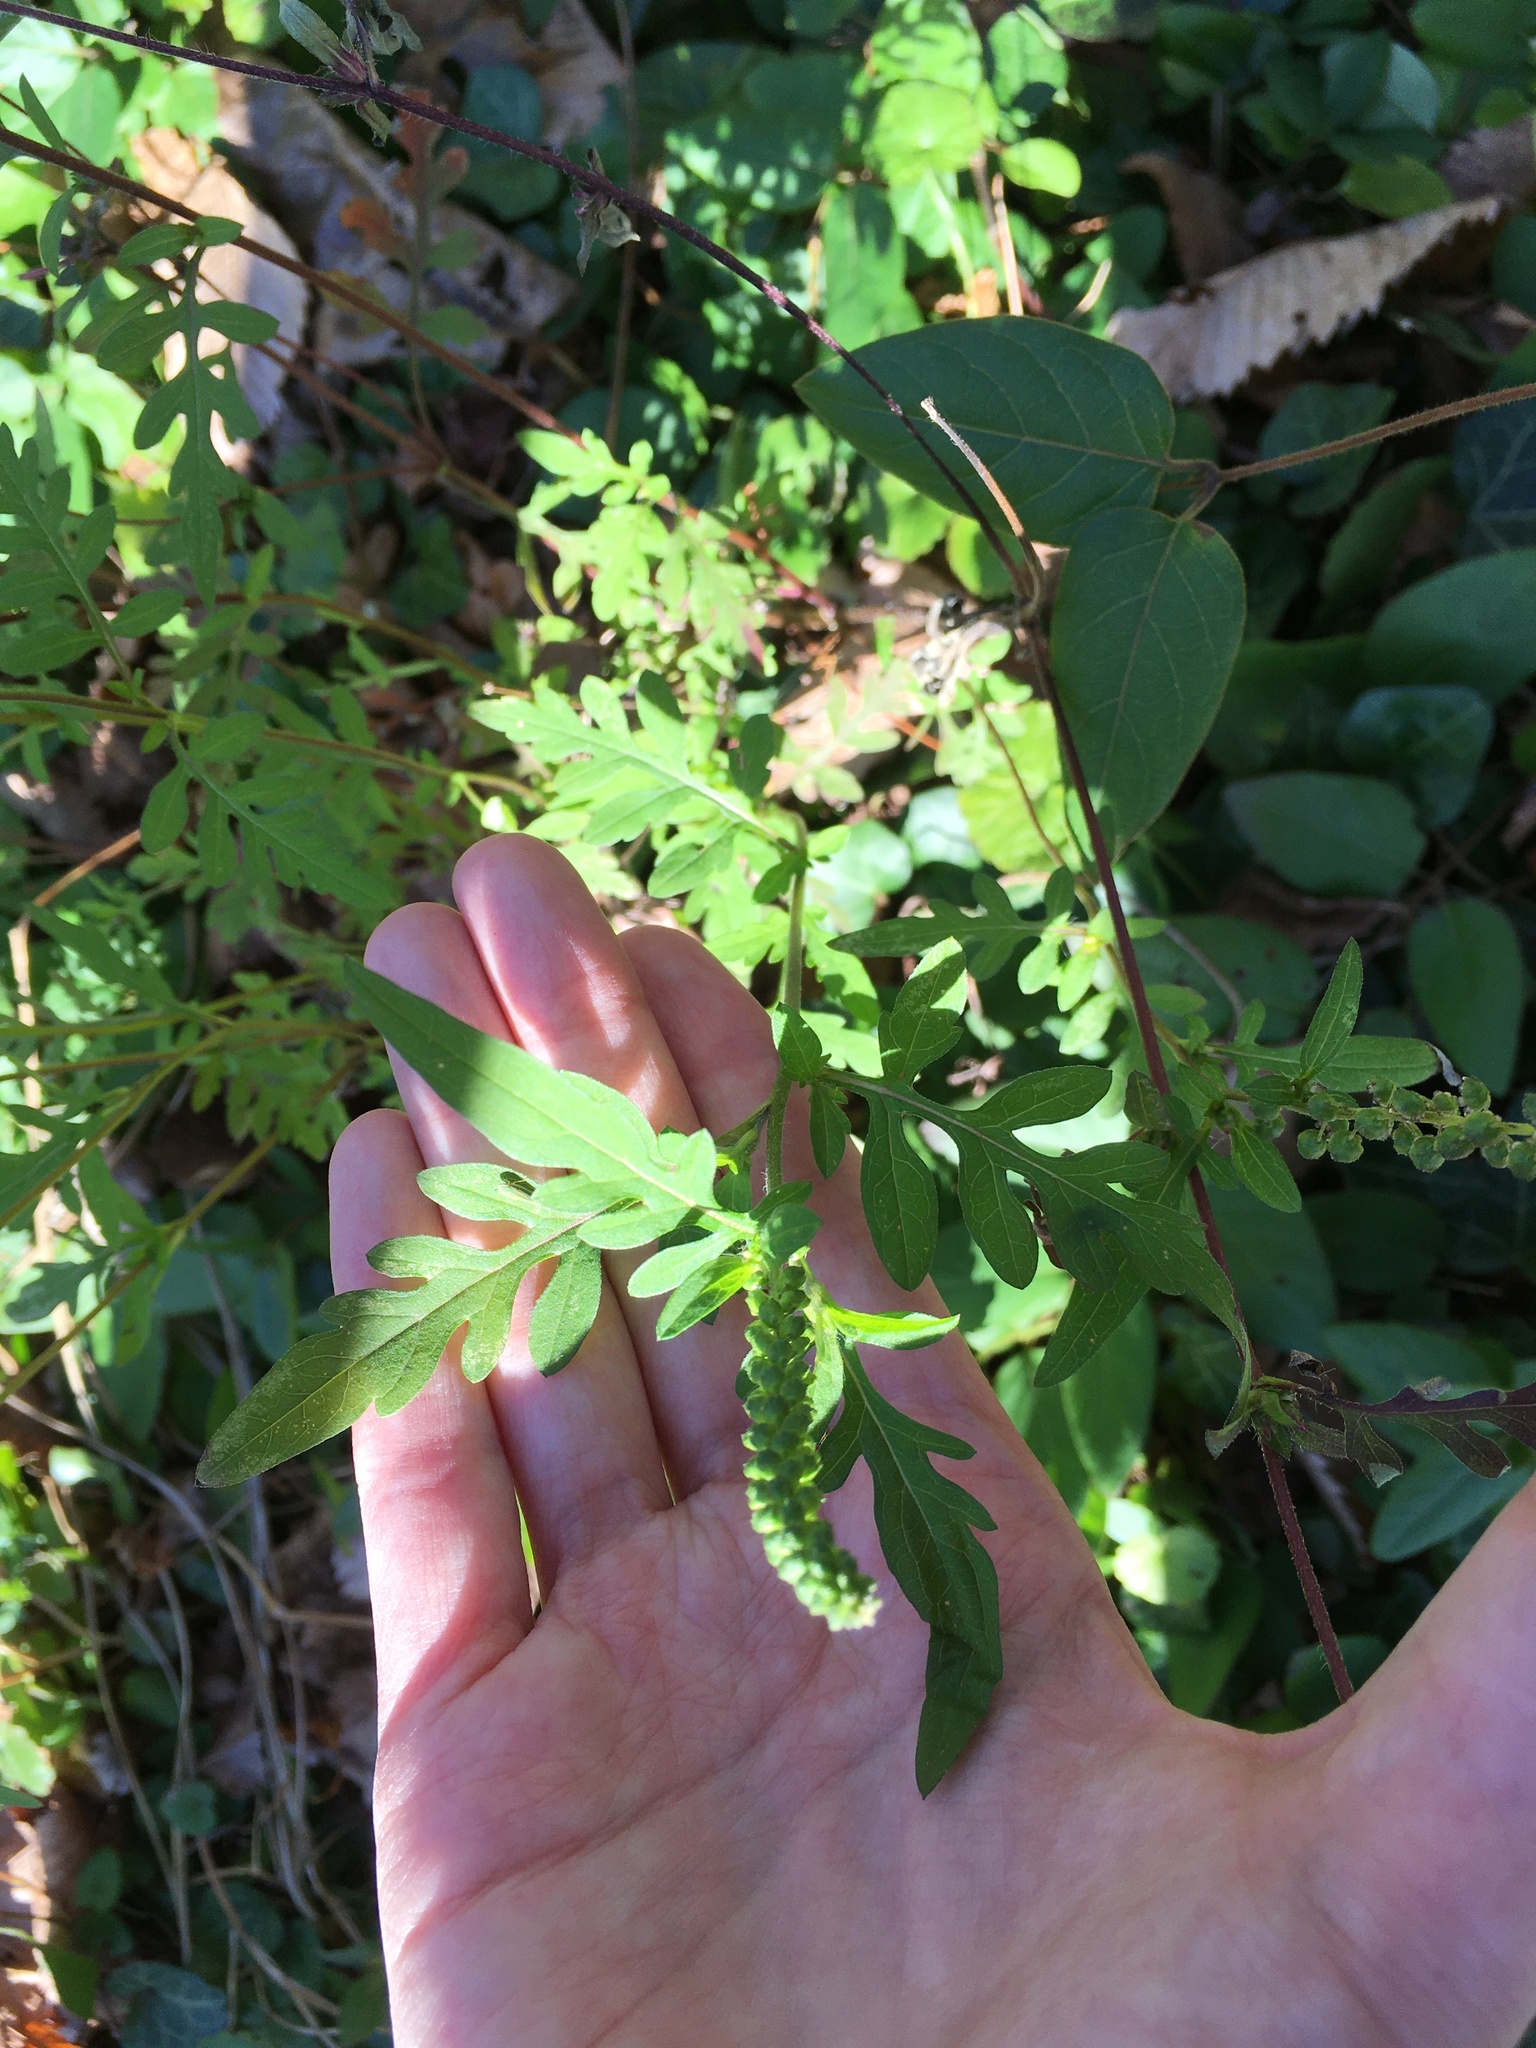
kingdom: Plantae
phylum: Tracheophyta
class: Magnoliopsida
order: Asterales
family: Asteraceae
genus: Ambrosia
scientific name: Ambrosia artemisiifolia
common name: Annual ragweed
